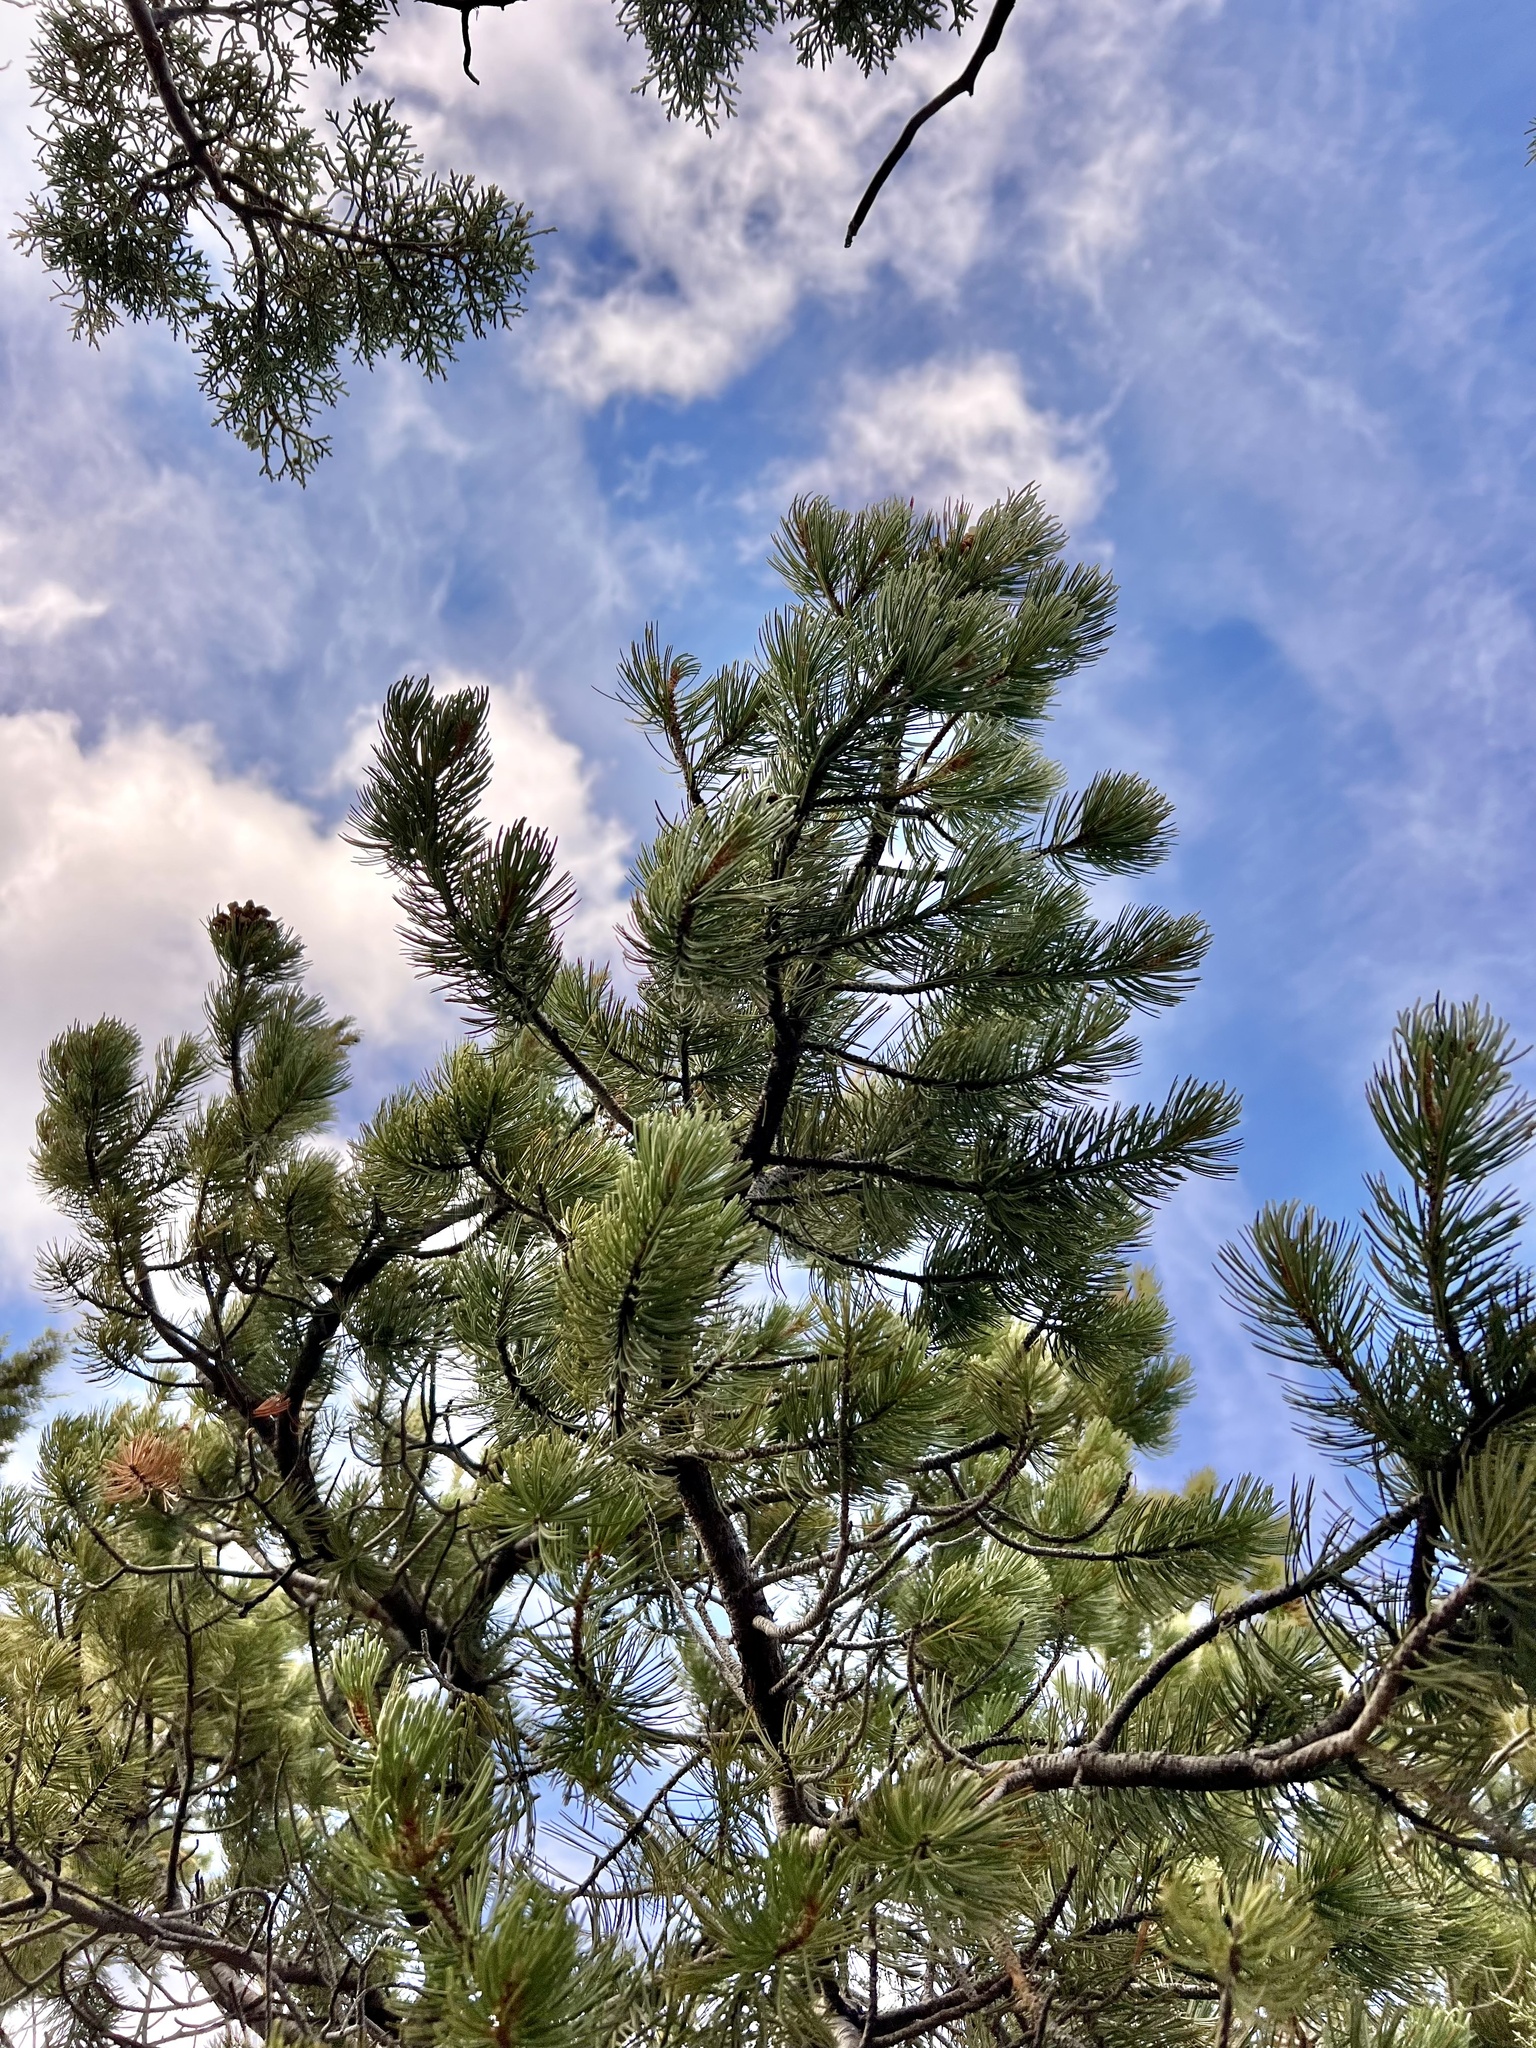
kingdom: Plantae
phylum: Tracheophyta
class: Pinopsida
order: Pinales
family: Pinaceae
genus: Pinus
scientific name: Pinus cembroides
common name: Mexican nut pine
